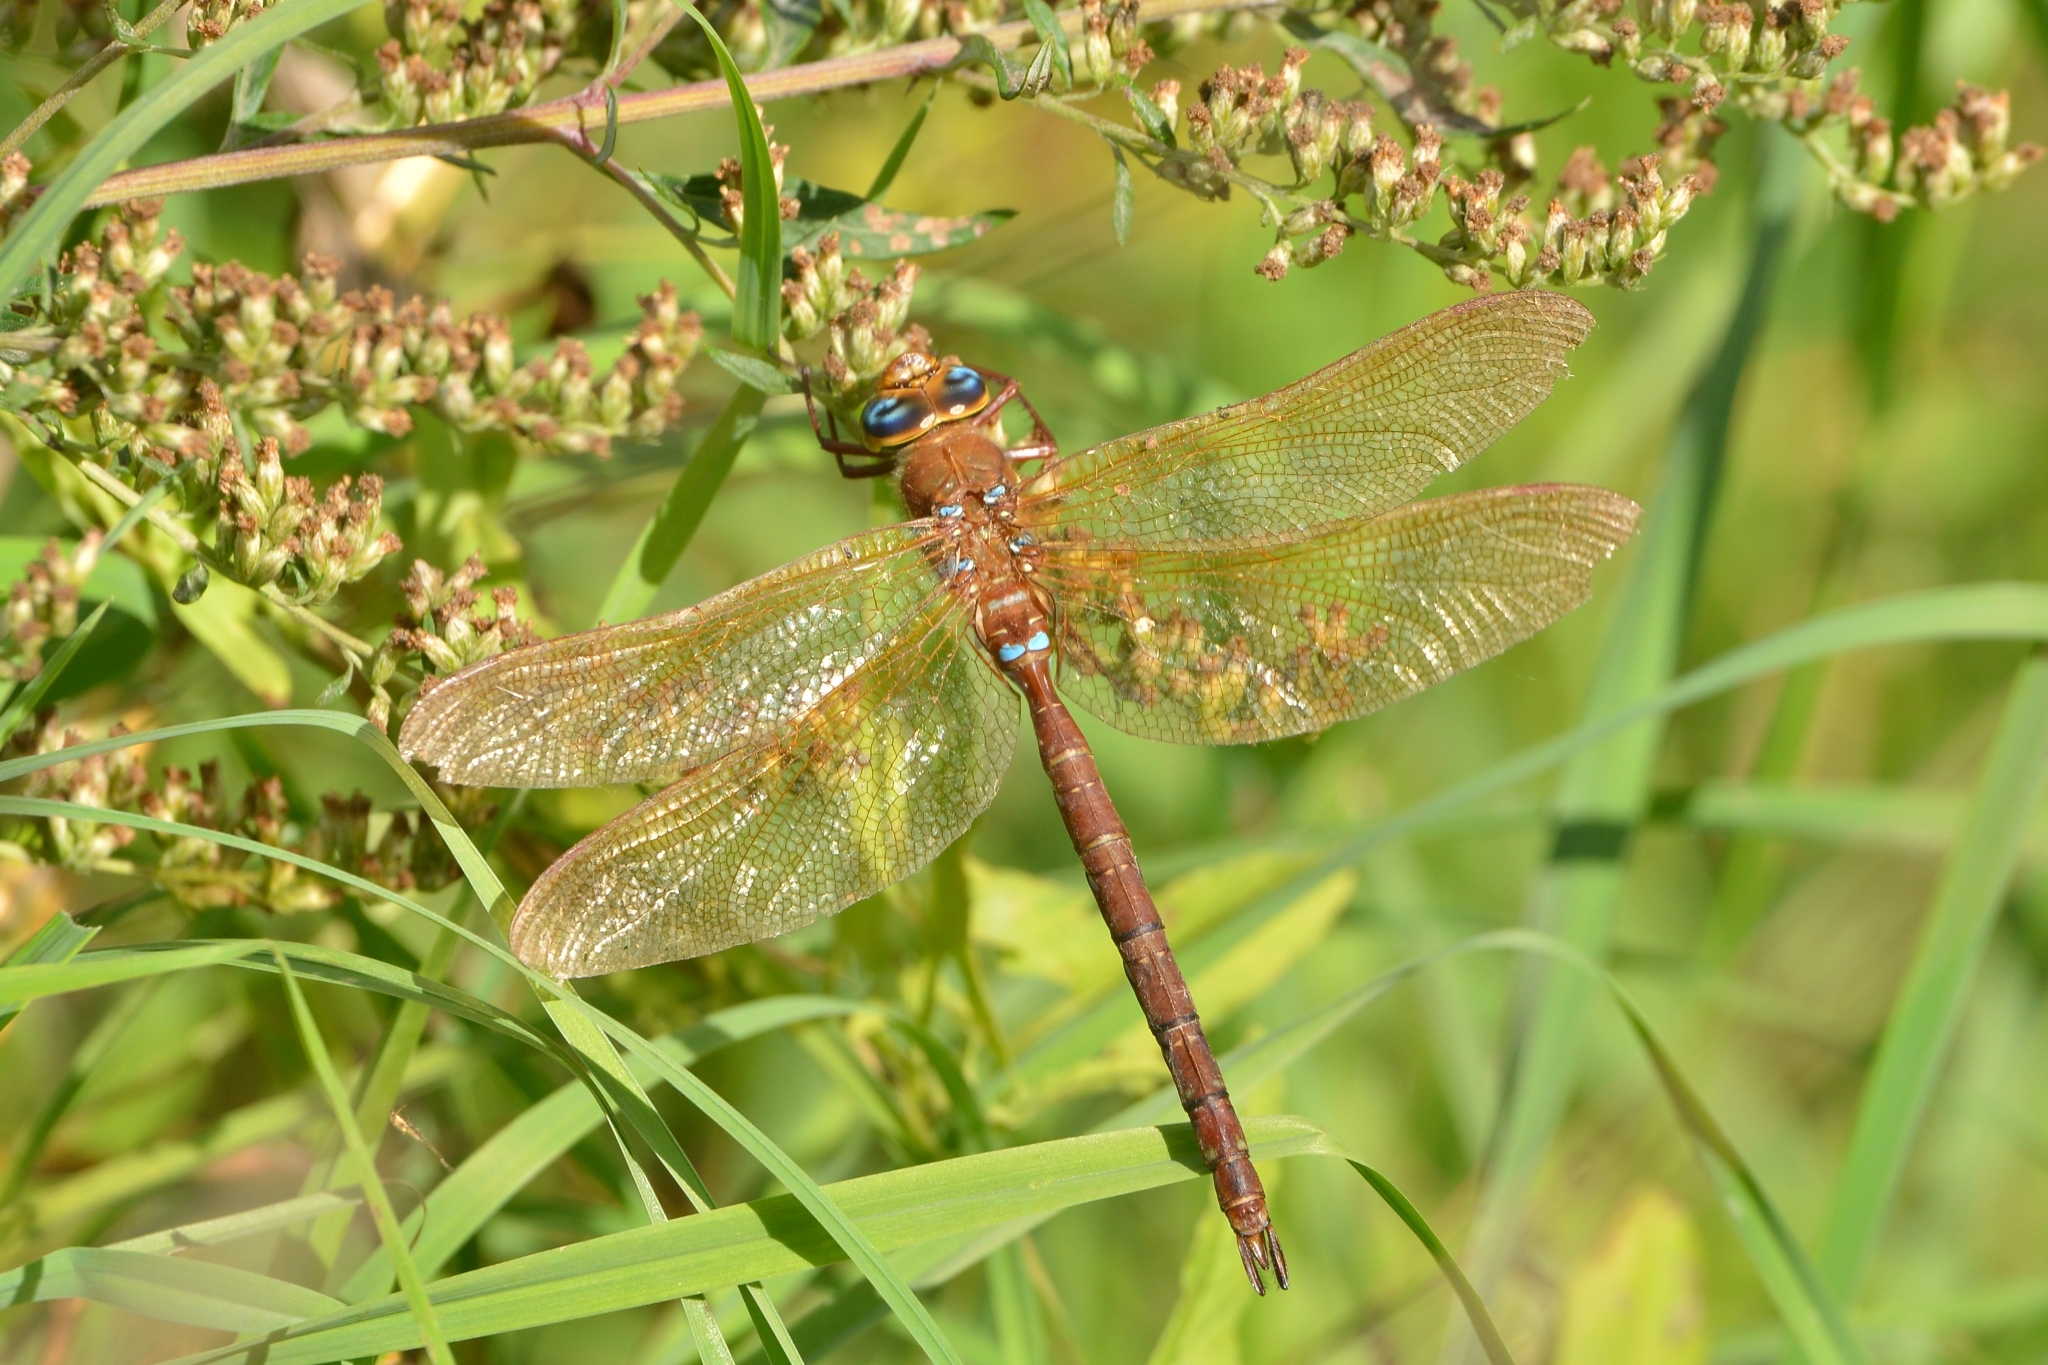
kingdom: Animalia
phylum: Arthropoda
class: Insecta
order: Odonata
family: Aeshnidae
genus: Aeshna
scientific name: Aeshna grandis
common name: Brown hawker
